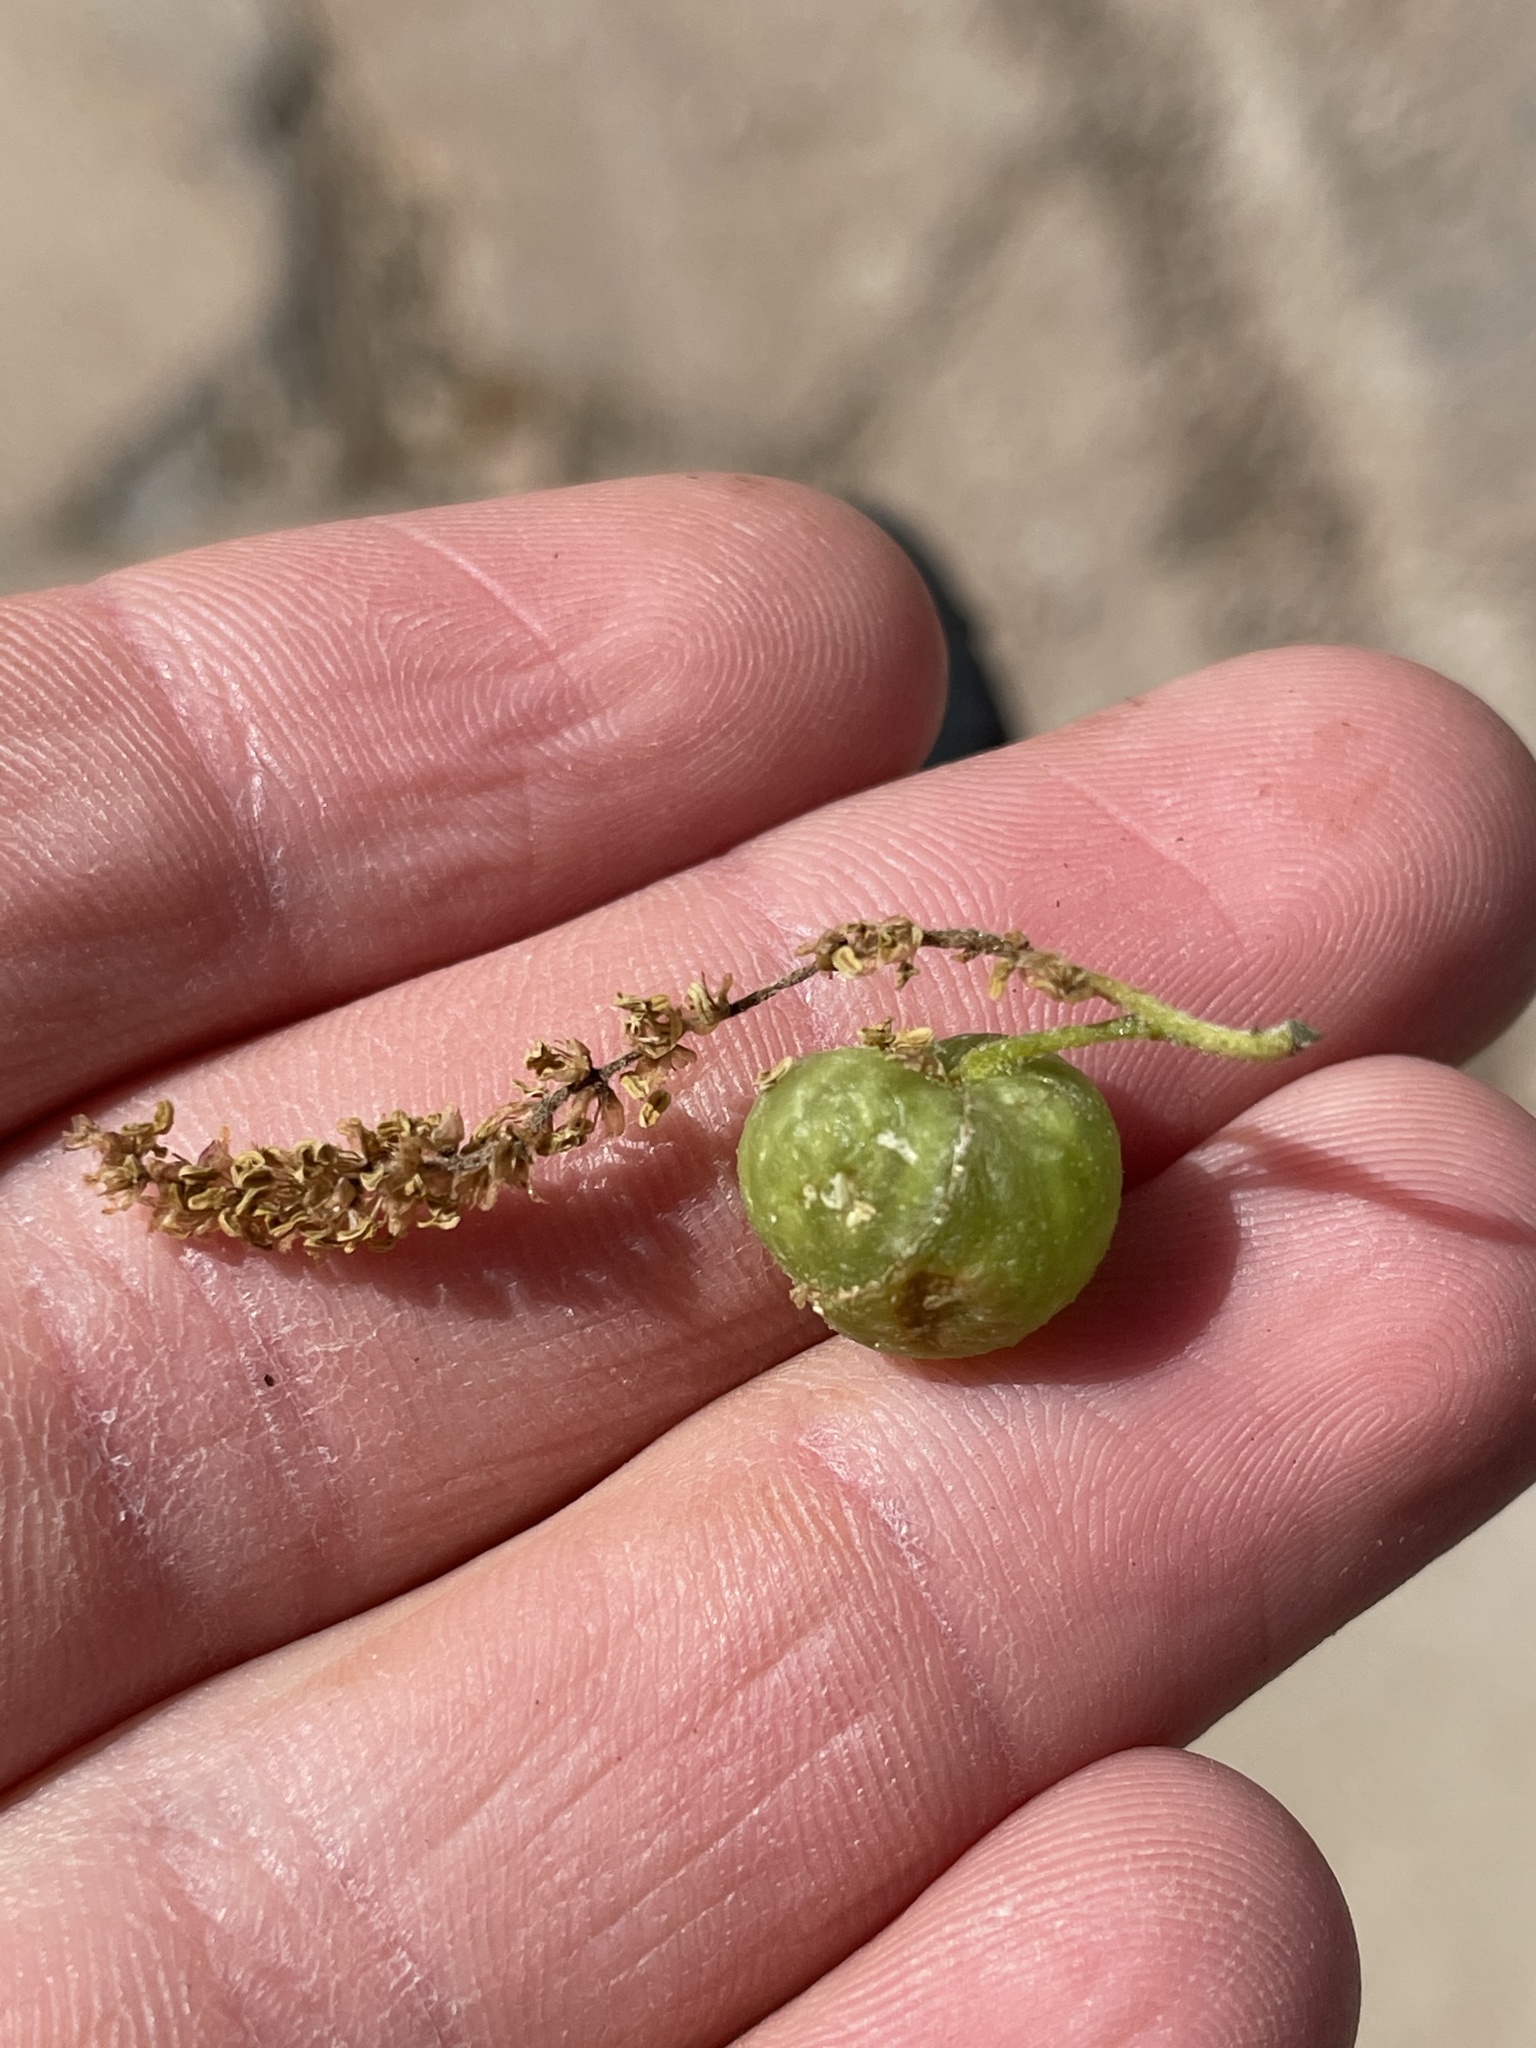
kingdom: Animalia
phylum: Arthropoda
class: Insecta
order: Hymenoptera
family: Cynipidae
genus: Dryocosmus
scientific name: Dryocosmus quercuspalustris
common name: Succulent oak gall wasp
